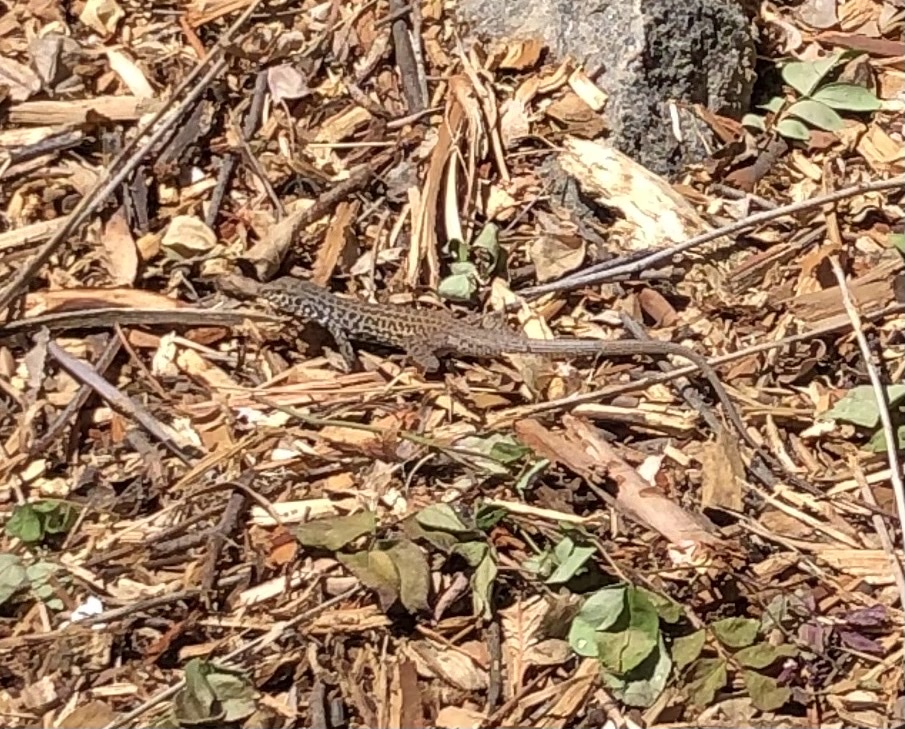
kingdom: Animalia
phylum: Chordata
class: Squamata
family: Teiidae
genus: Aspidoscelis
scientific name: Aspidoscelis tigris
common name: Tiger whiptail
